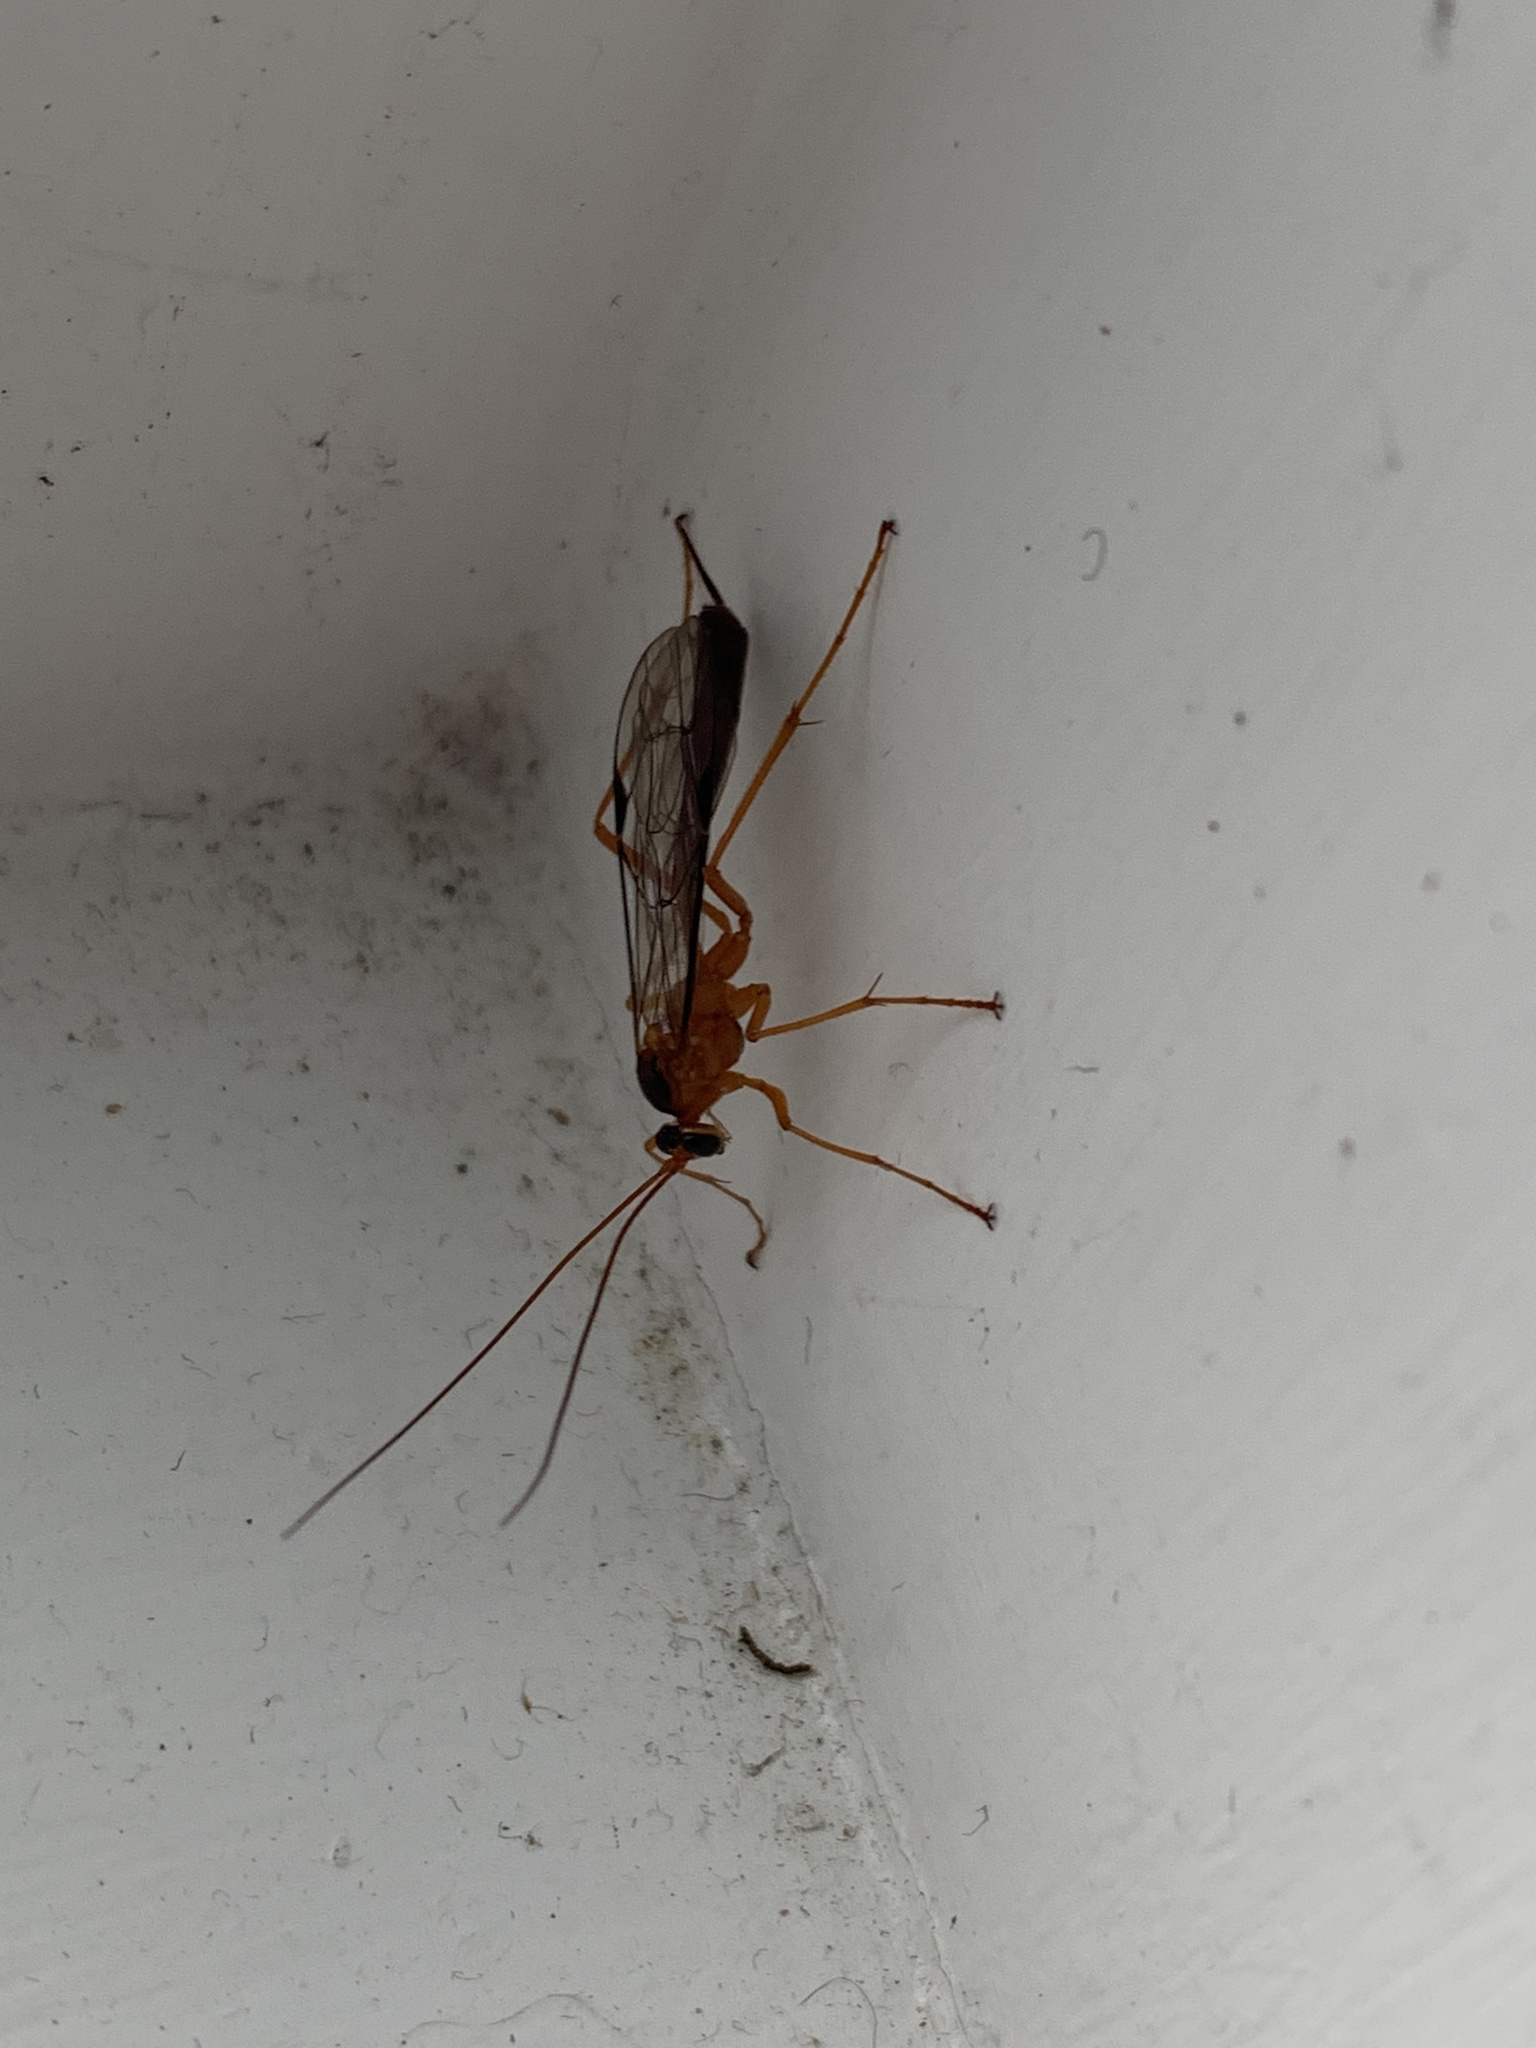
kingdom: Animalia
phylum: Arthropoda
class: Insecta
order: Hymenoptera
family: Ichneumonidae
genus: Netelia
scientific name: Netelia ephippiata
